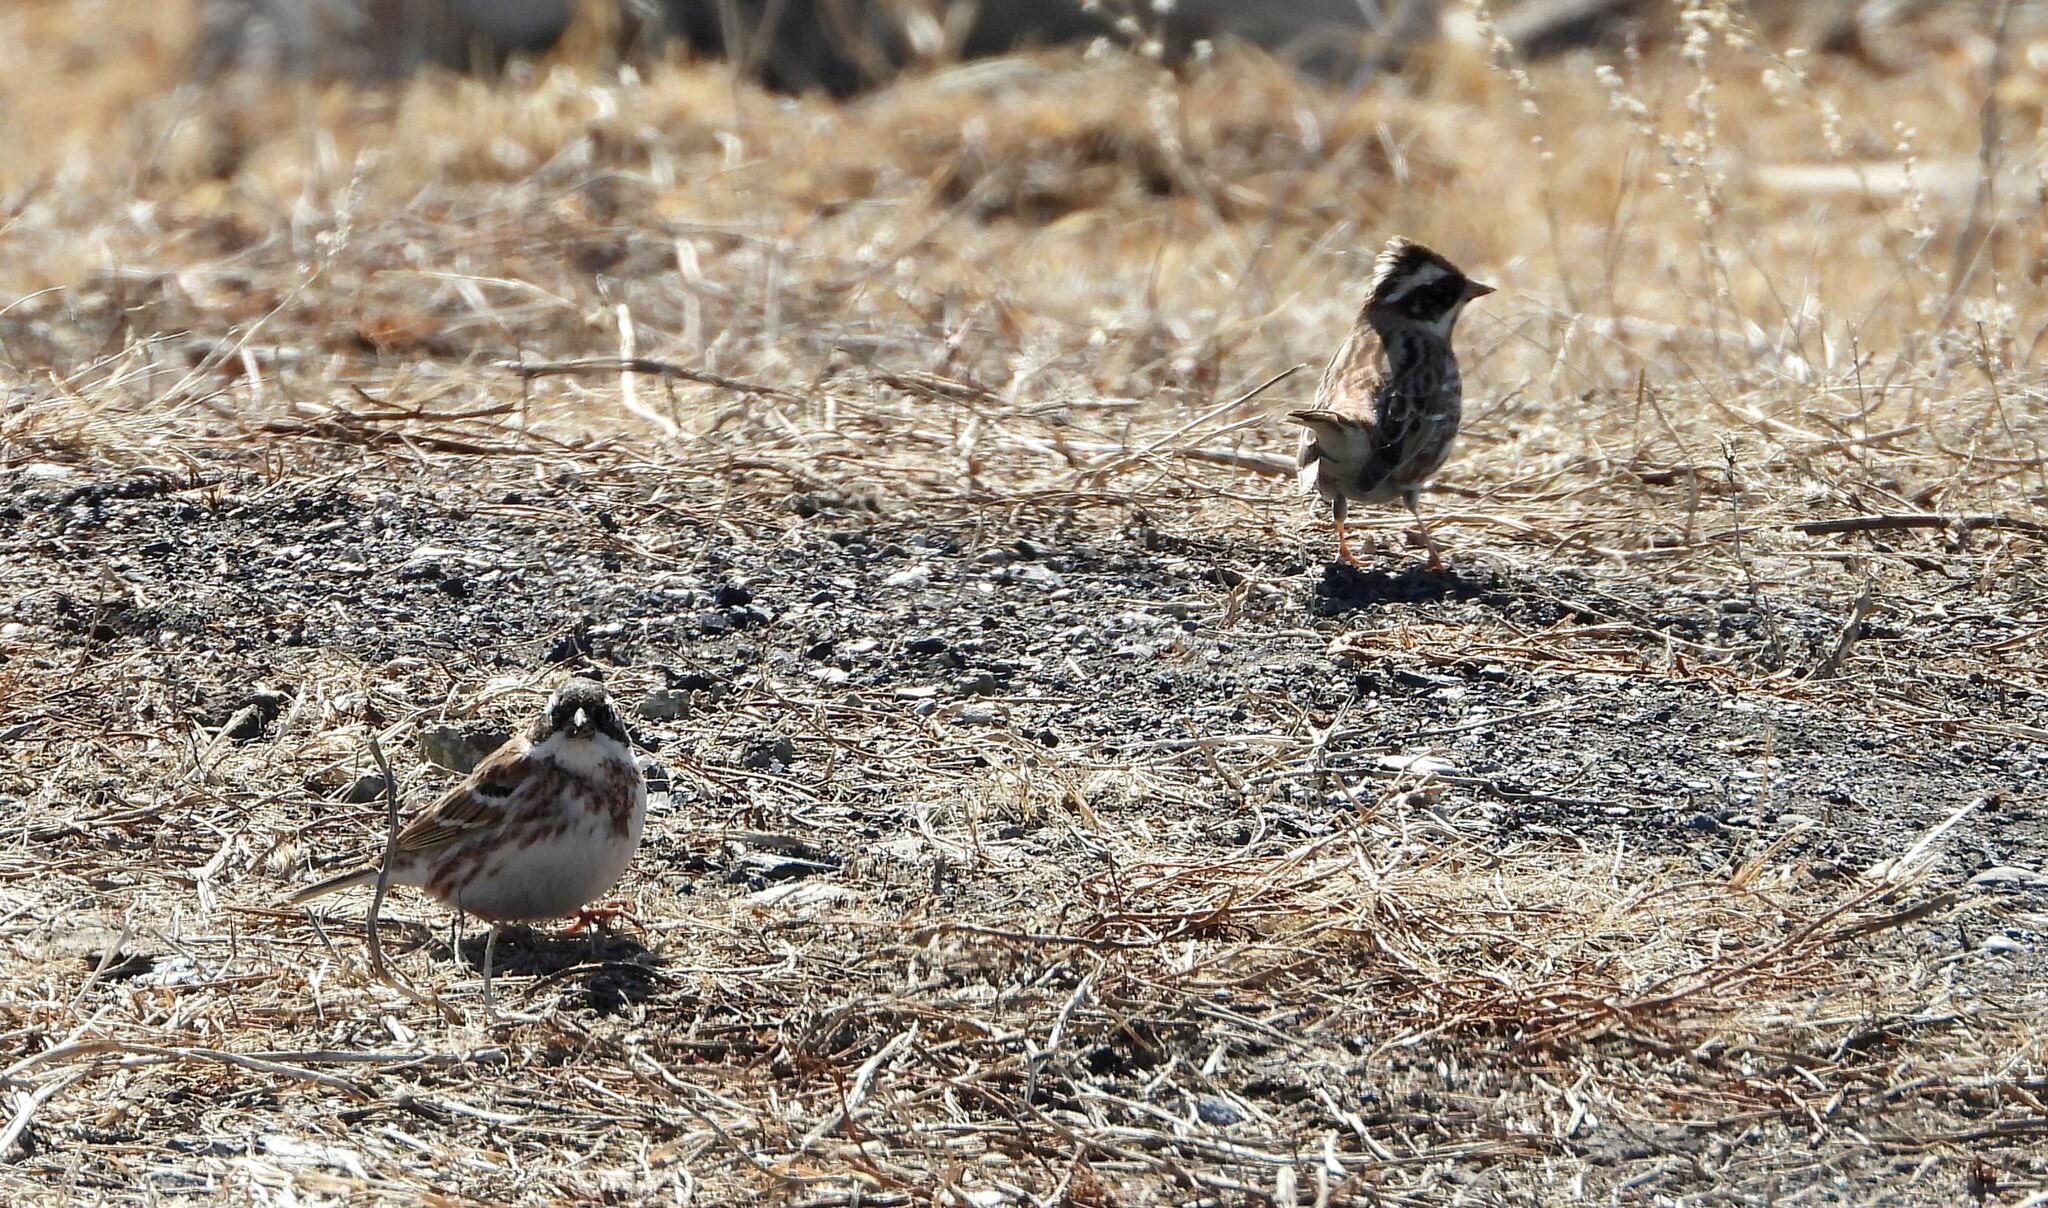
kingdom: Animalia
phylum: Chordata
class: Aves
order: Passeriformes
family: Emberizidae
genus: Emberiza
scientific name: Emberiza rustica
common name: Rustic bunting
